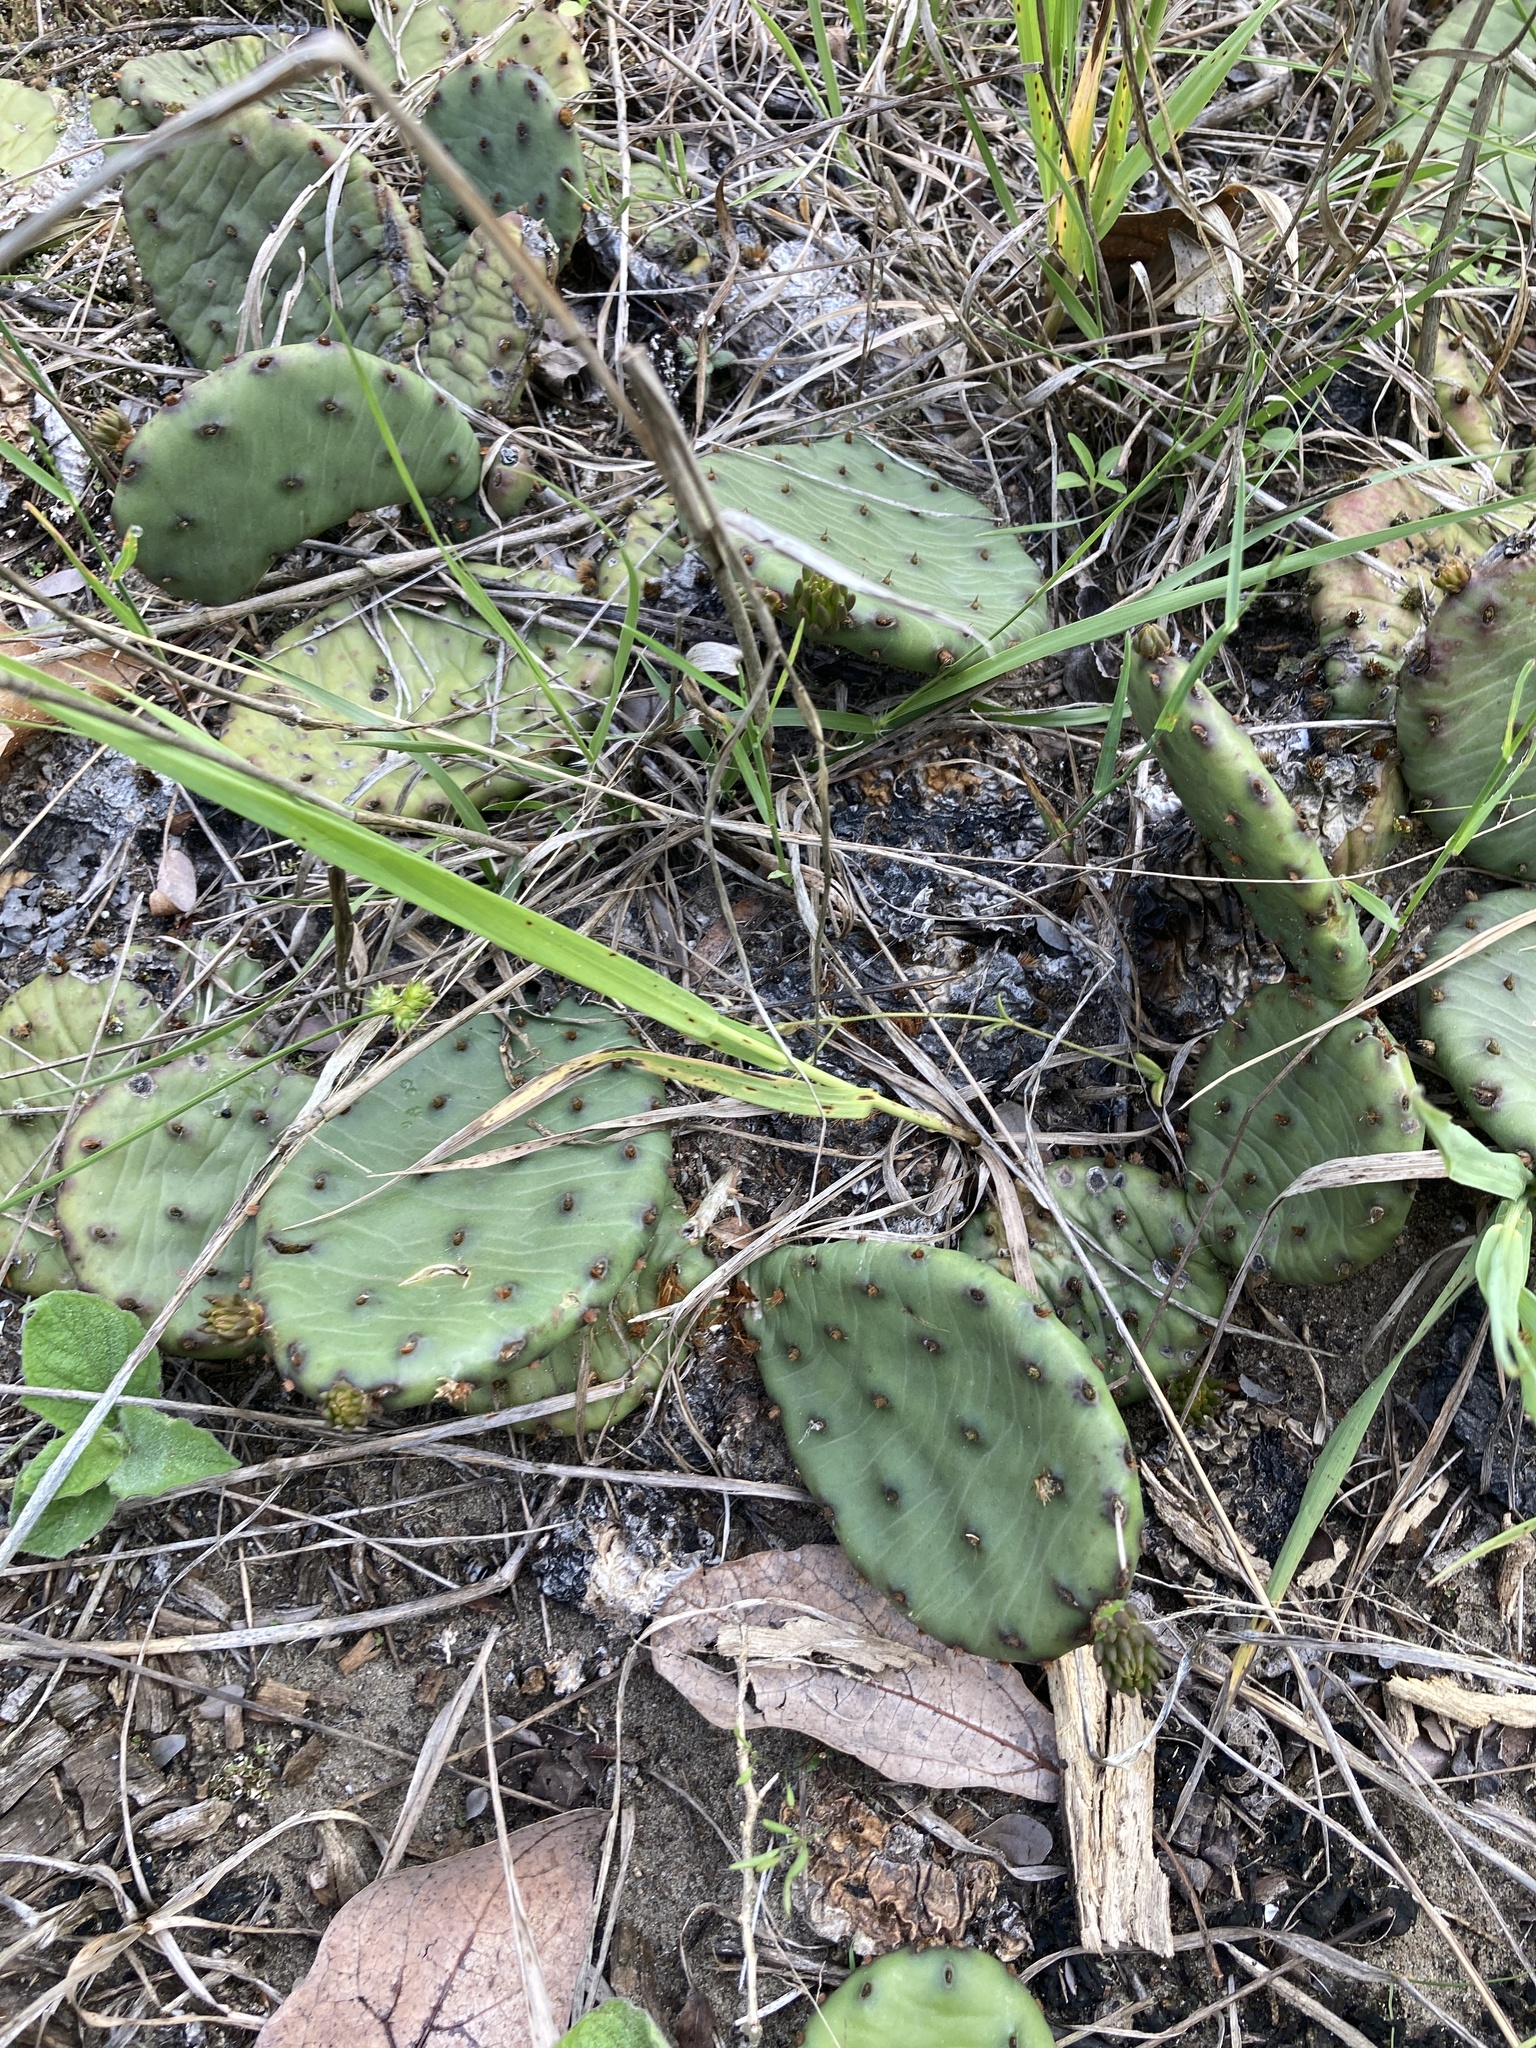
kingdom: Plantae
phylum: Tracheophyta
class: Magnoliopsida
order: Caryophyllales
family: Cactaceae
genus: Opuntia
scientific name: Opuntia humifusa
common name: Eastern prickly-pear
